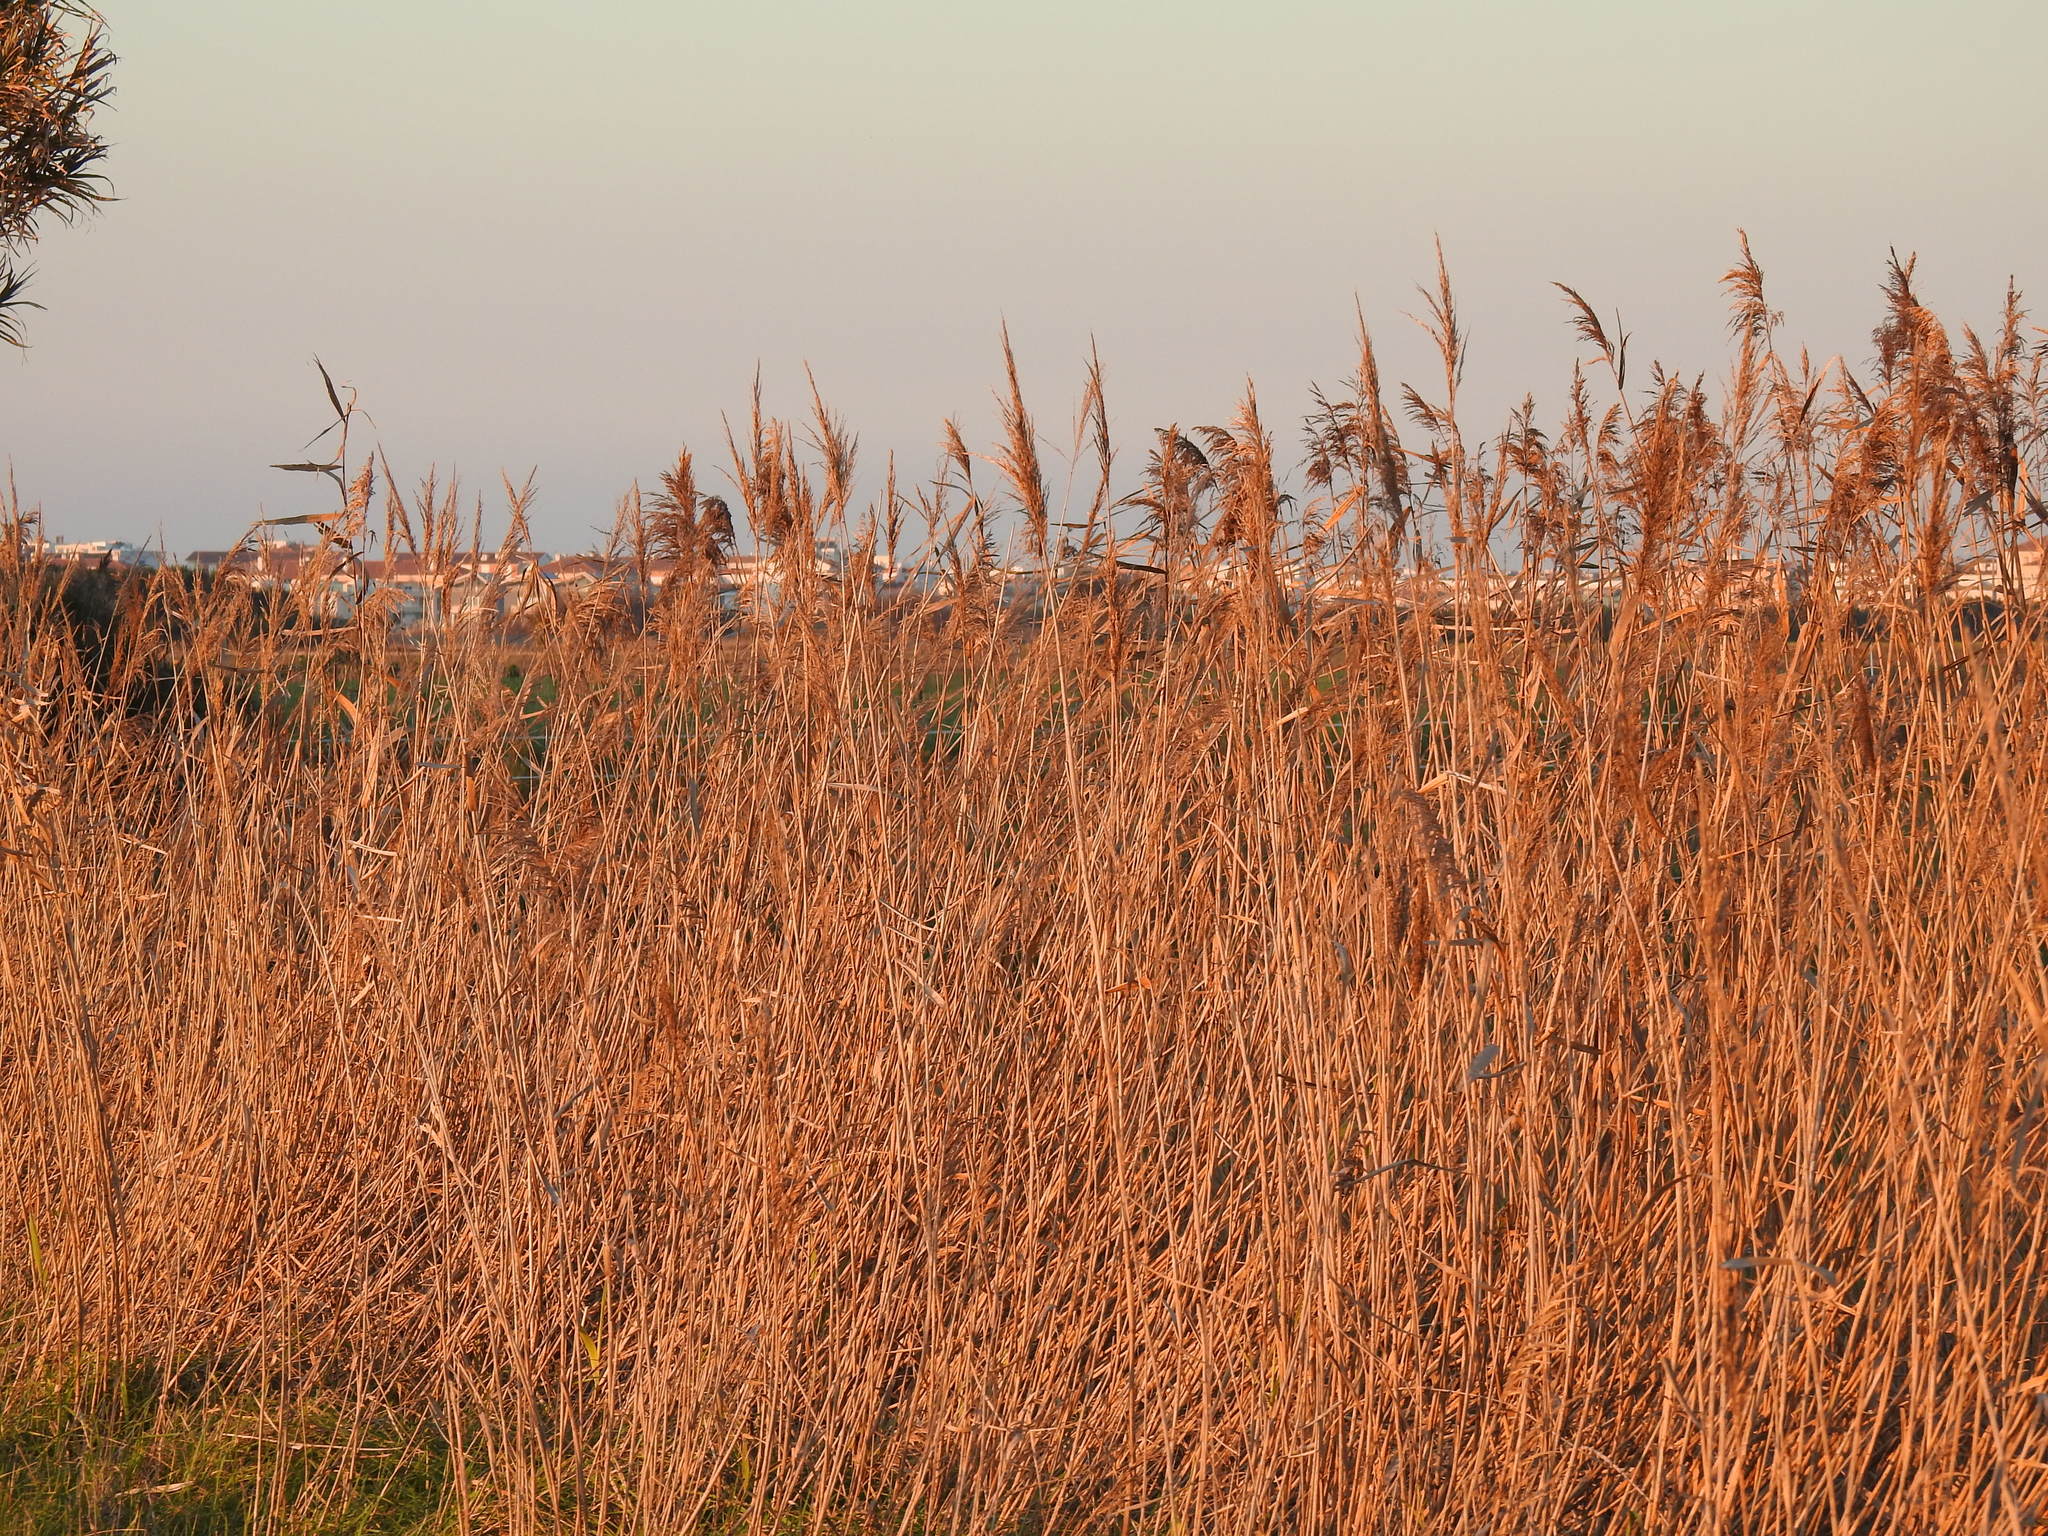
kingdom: Plantae
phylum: Tracheophyta
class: Liliopsida
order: Poales
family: Poaceae
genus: Phragmites
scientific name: Phragmites australis
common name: Common reed
